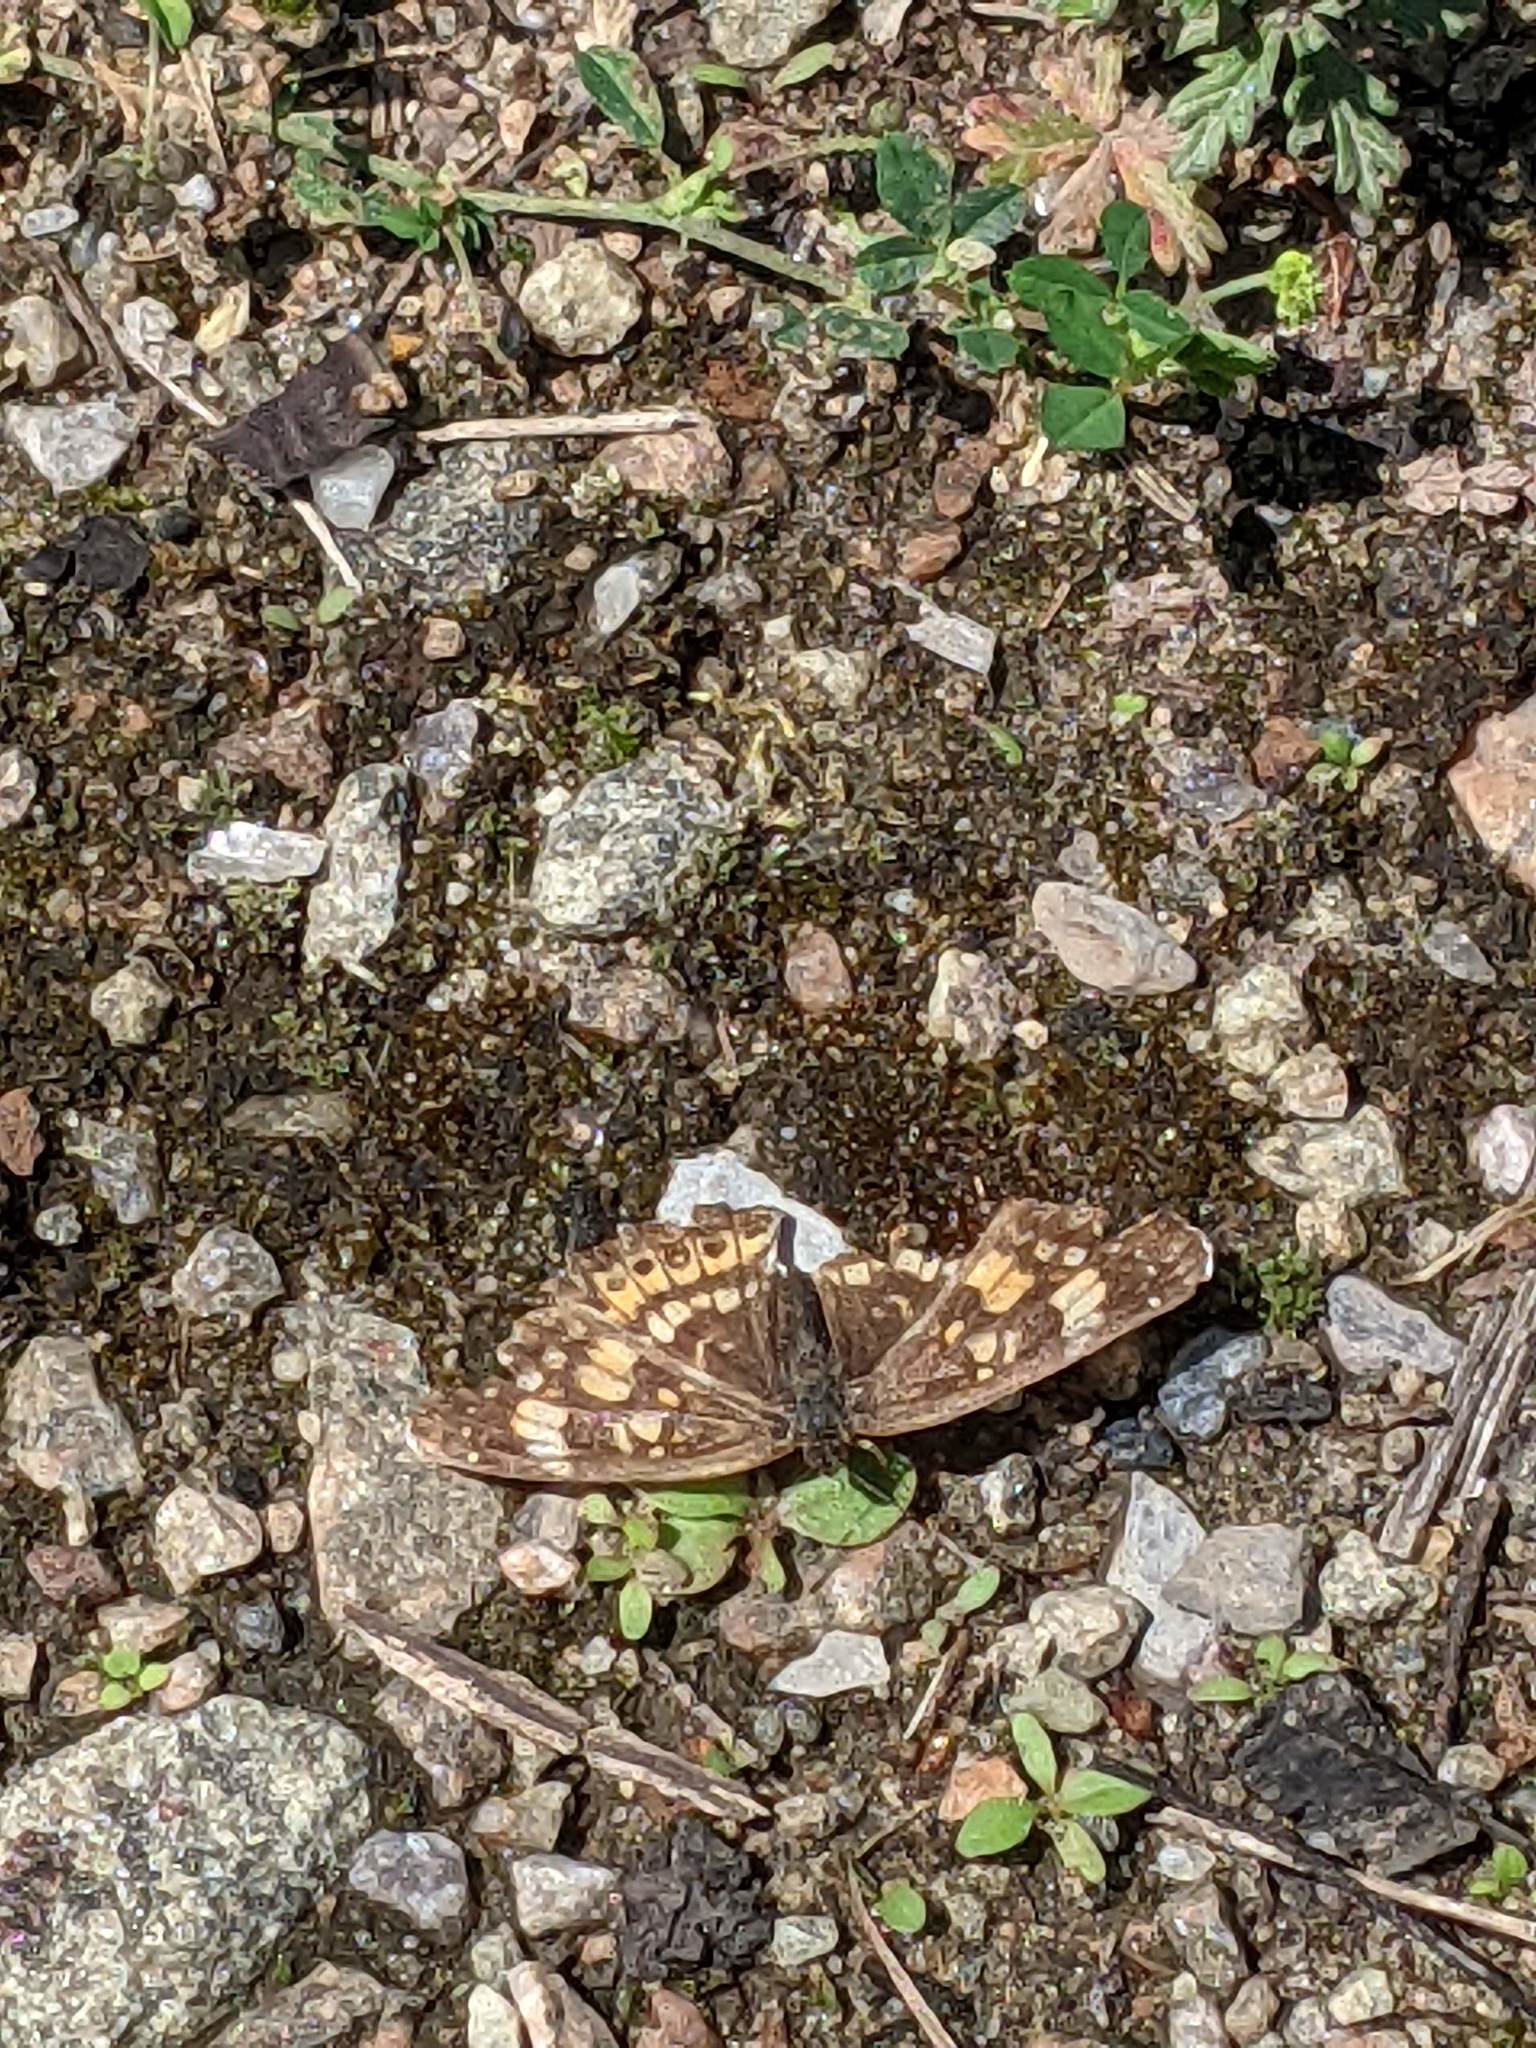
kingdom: Animalia
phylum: Arthropoda
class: Insecta
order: Lepidoptera
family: Nymphalidae
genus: Chlosyne
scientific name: Chlosyne nycteis
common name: Silvery checkerspot
